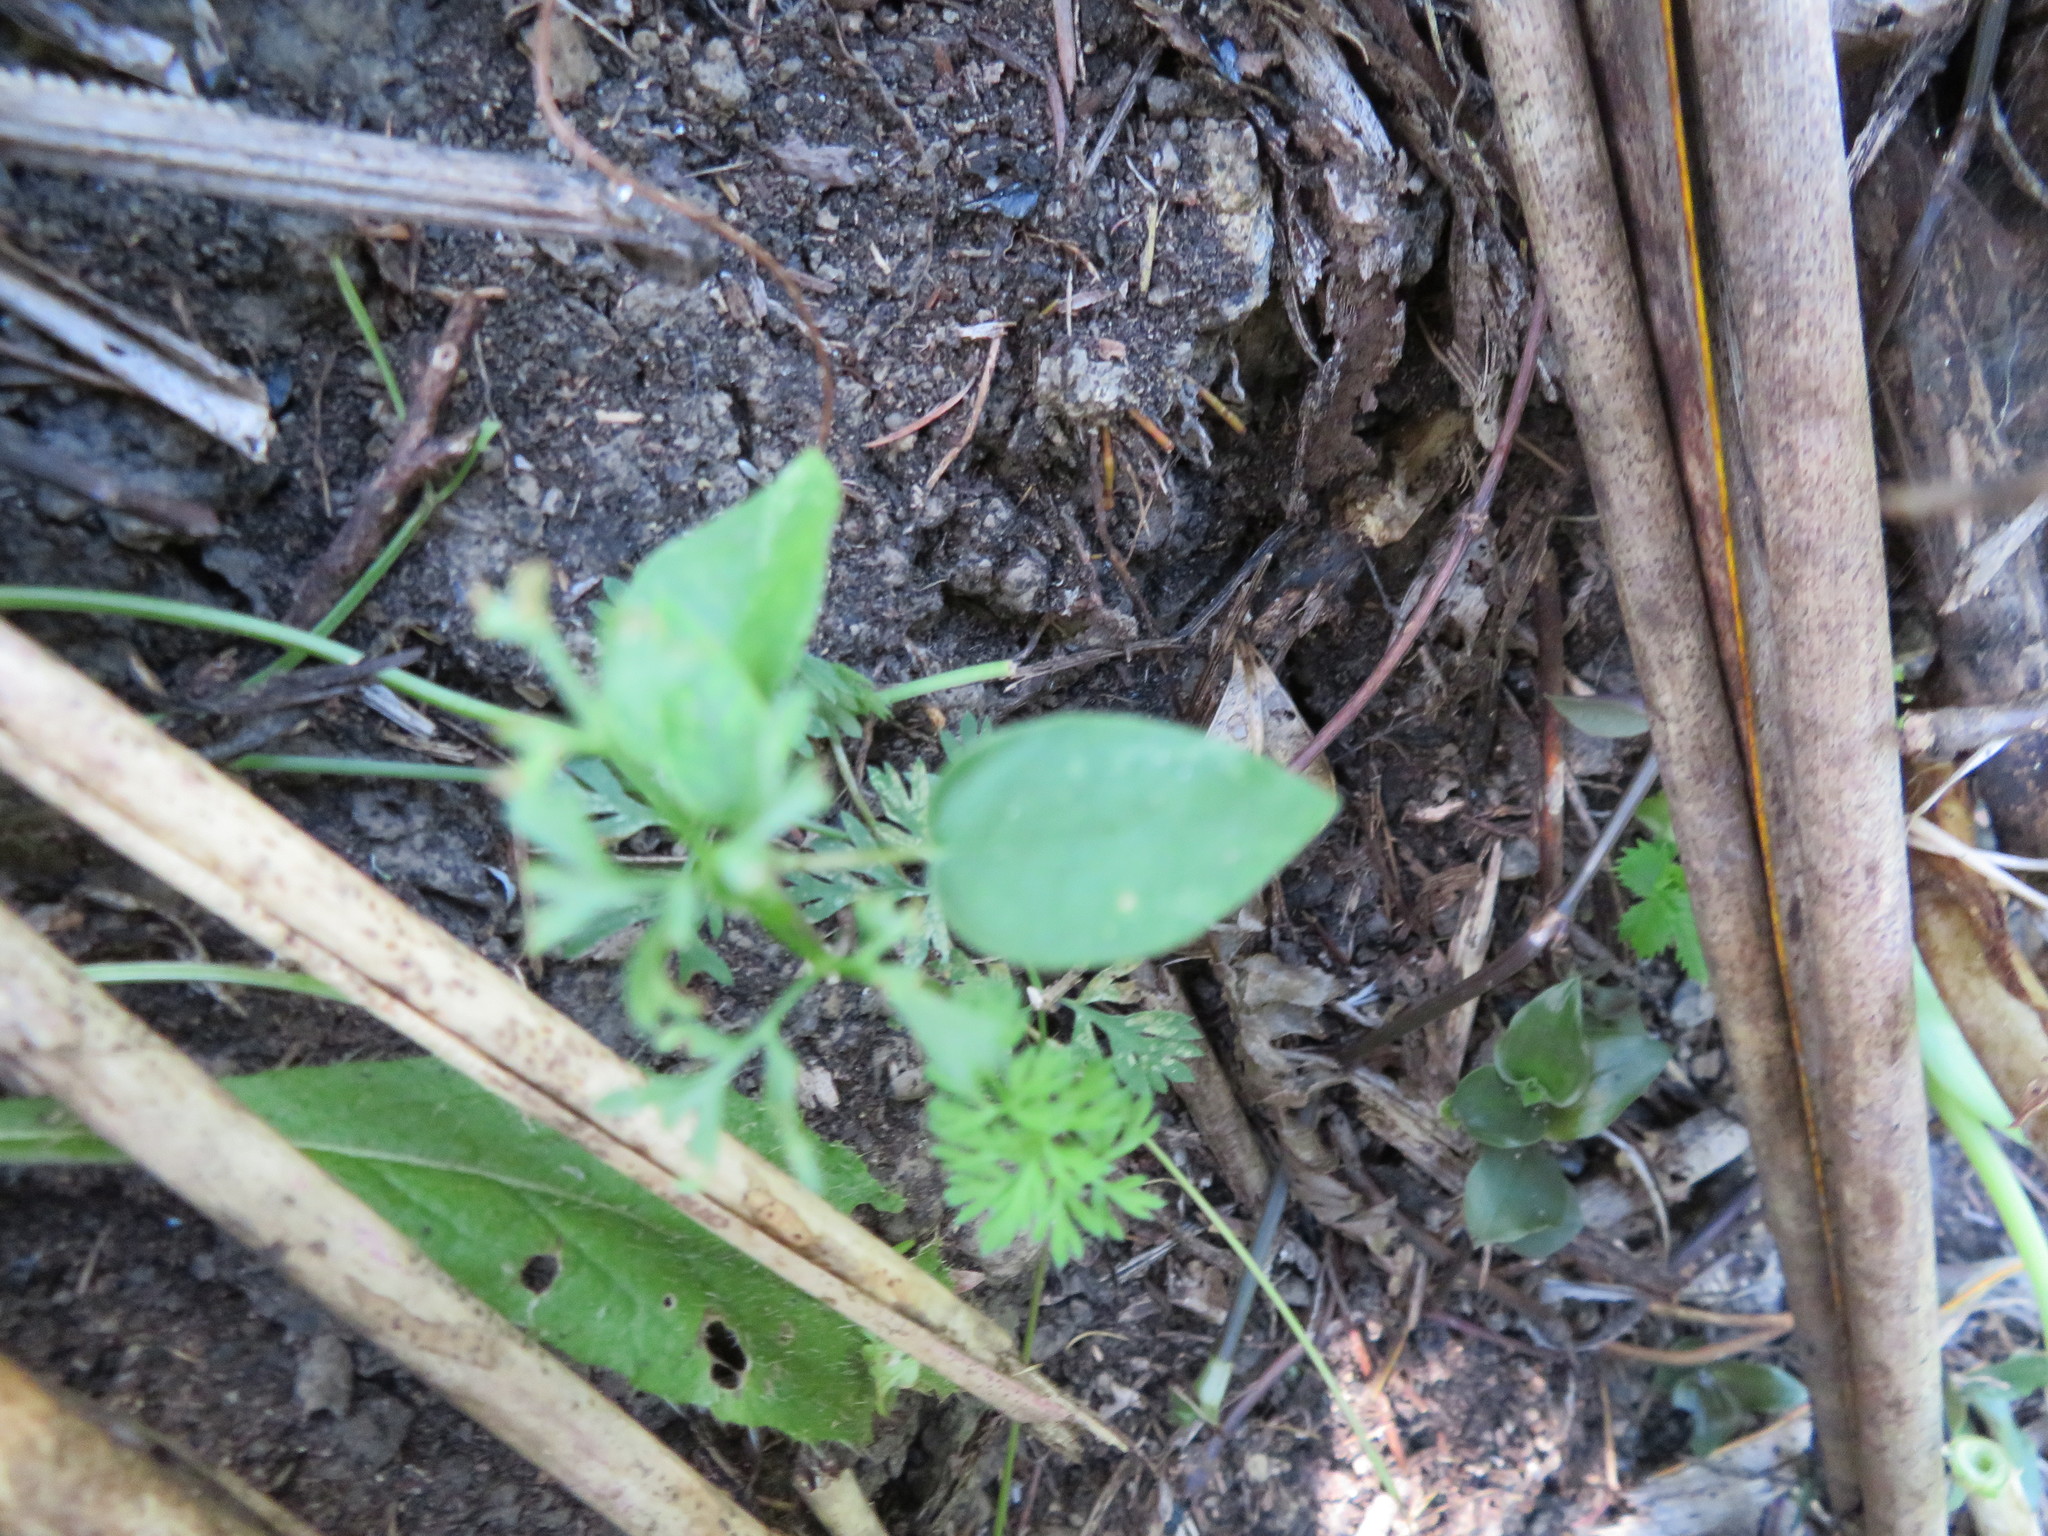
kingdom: Plantae
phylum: Tracheophyta
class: Magnoliopsida
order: Gentianales
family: Apocynaceae
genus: Araujia
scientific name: Araujia sericifera
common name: White bladderflower
